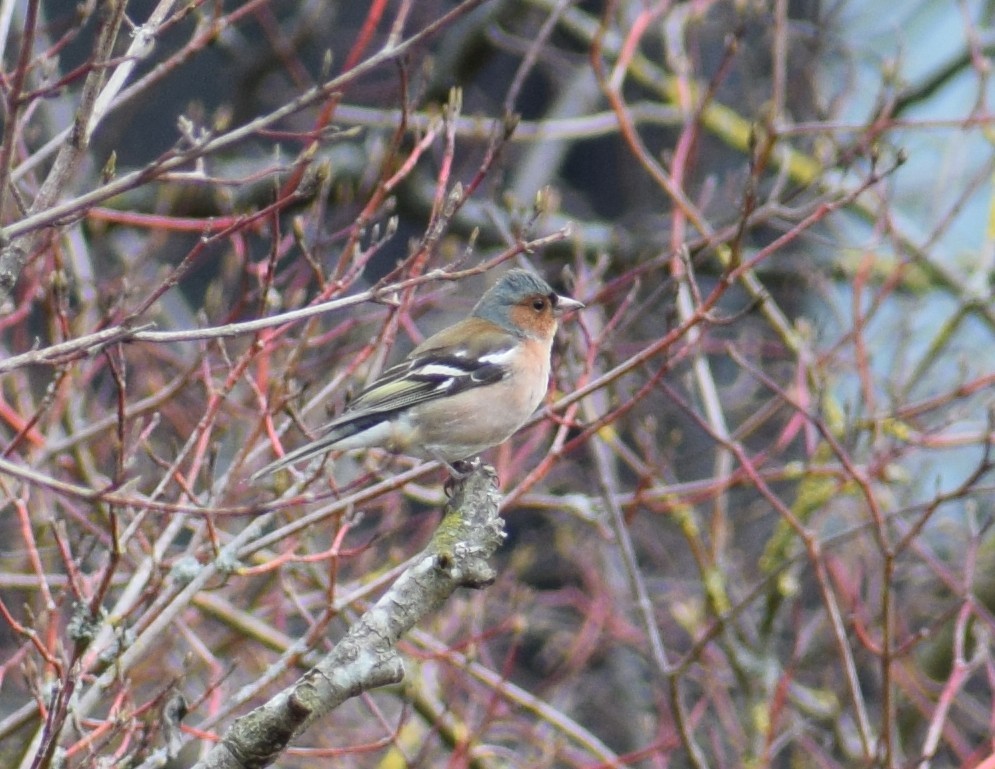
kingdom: Animalia
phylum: Chordata
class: Aves
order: Passeriformes
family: Fringillidae
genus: Fringilla
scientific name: Fringilla coelebs
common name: Common chaffinch
